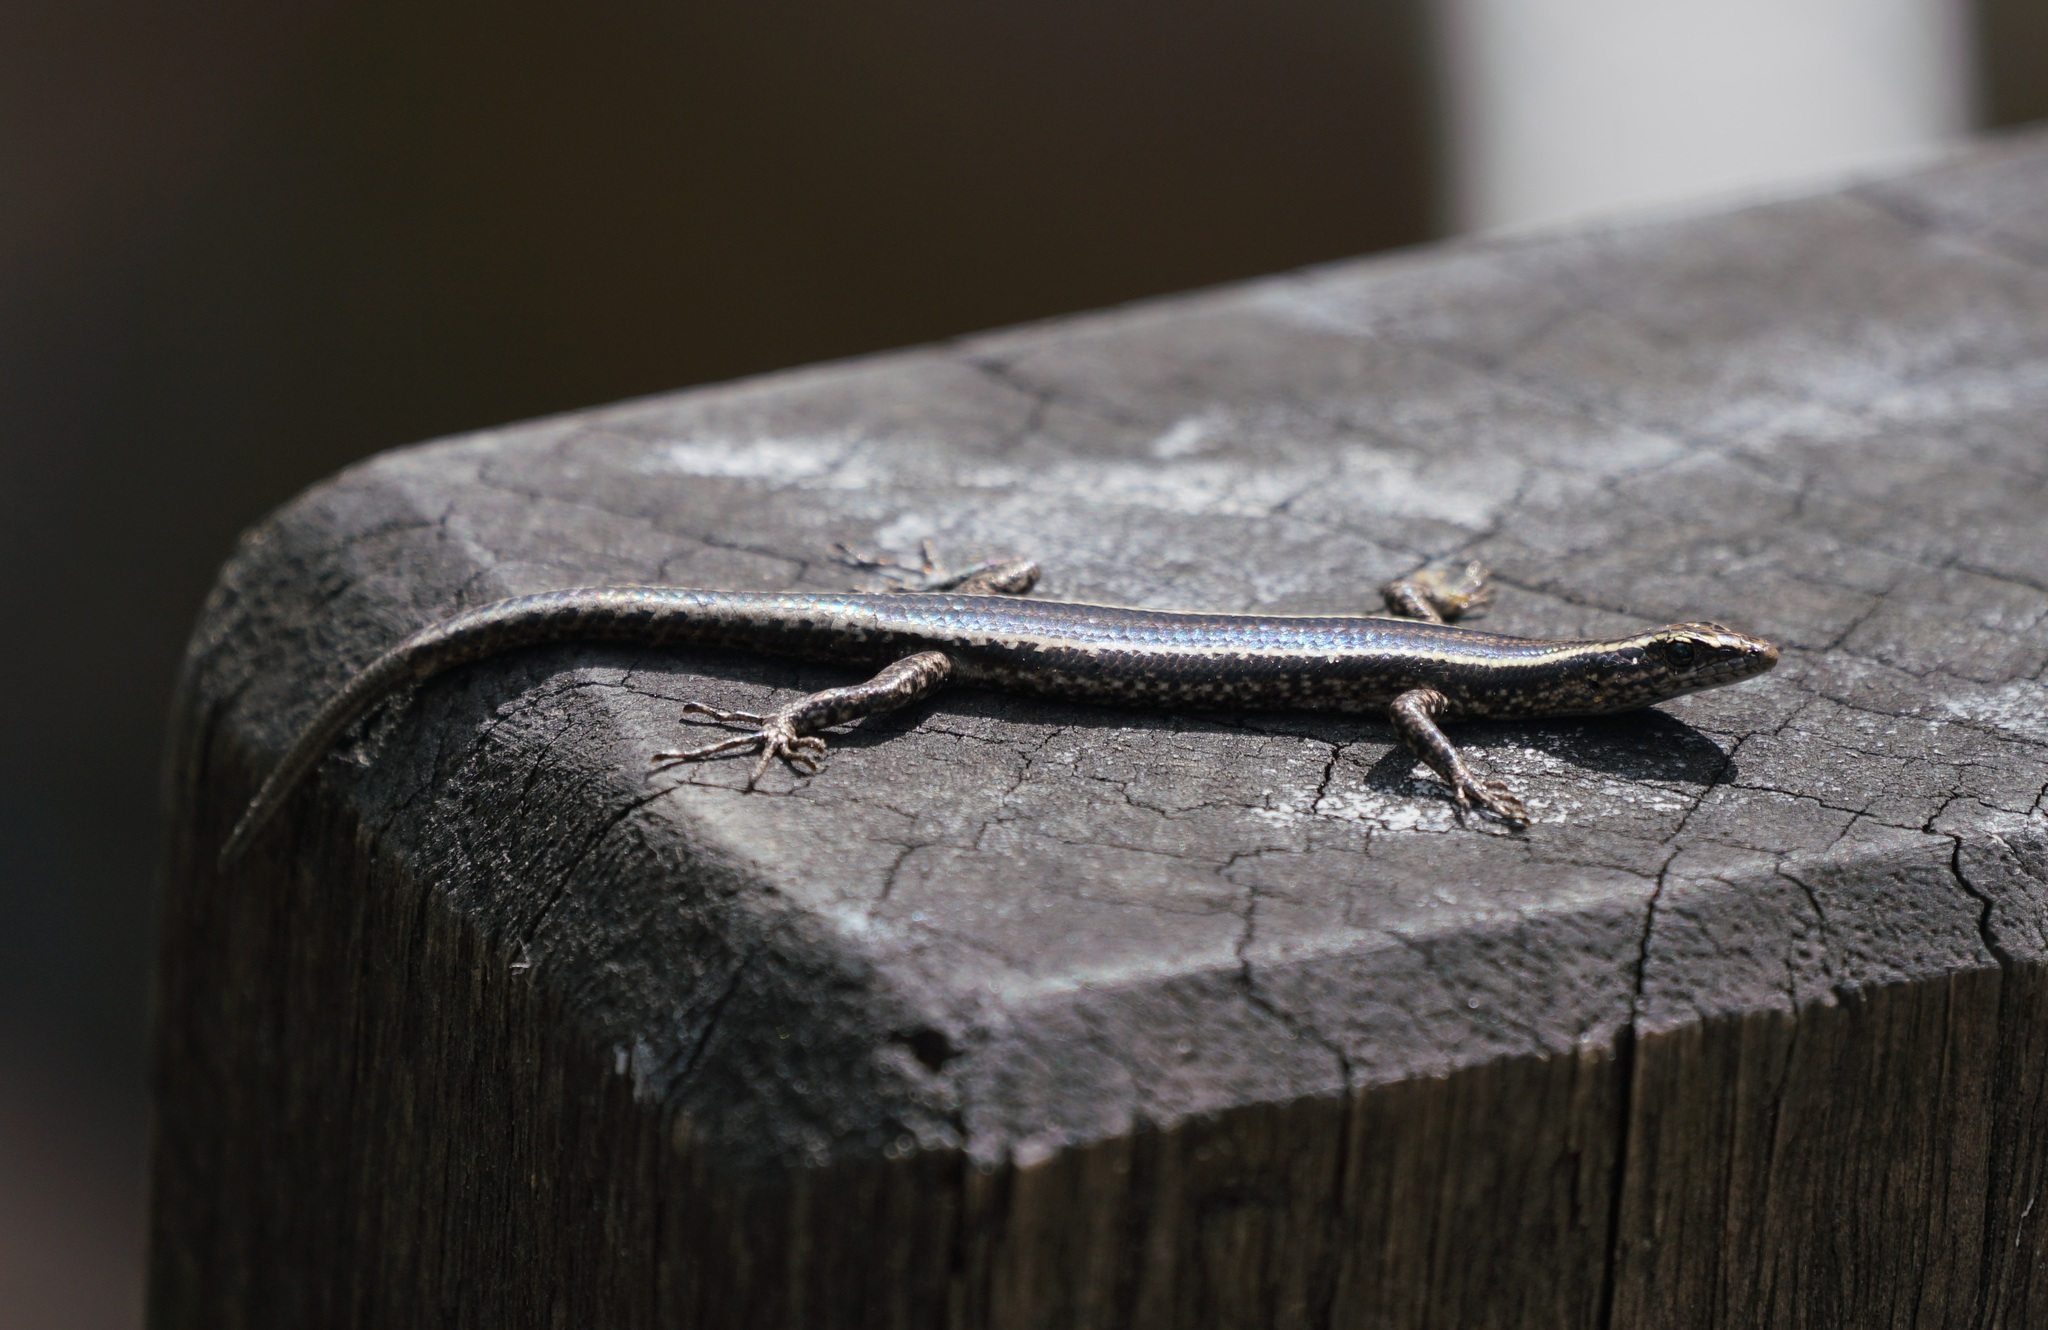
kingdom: Animalia
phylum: Chordata
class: Squamata
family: Scincidae
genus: Cryptoblepharus
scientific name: Cryptoblepharus pulcher
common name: Elegant snake-eyed skink
